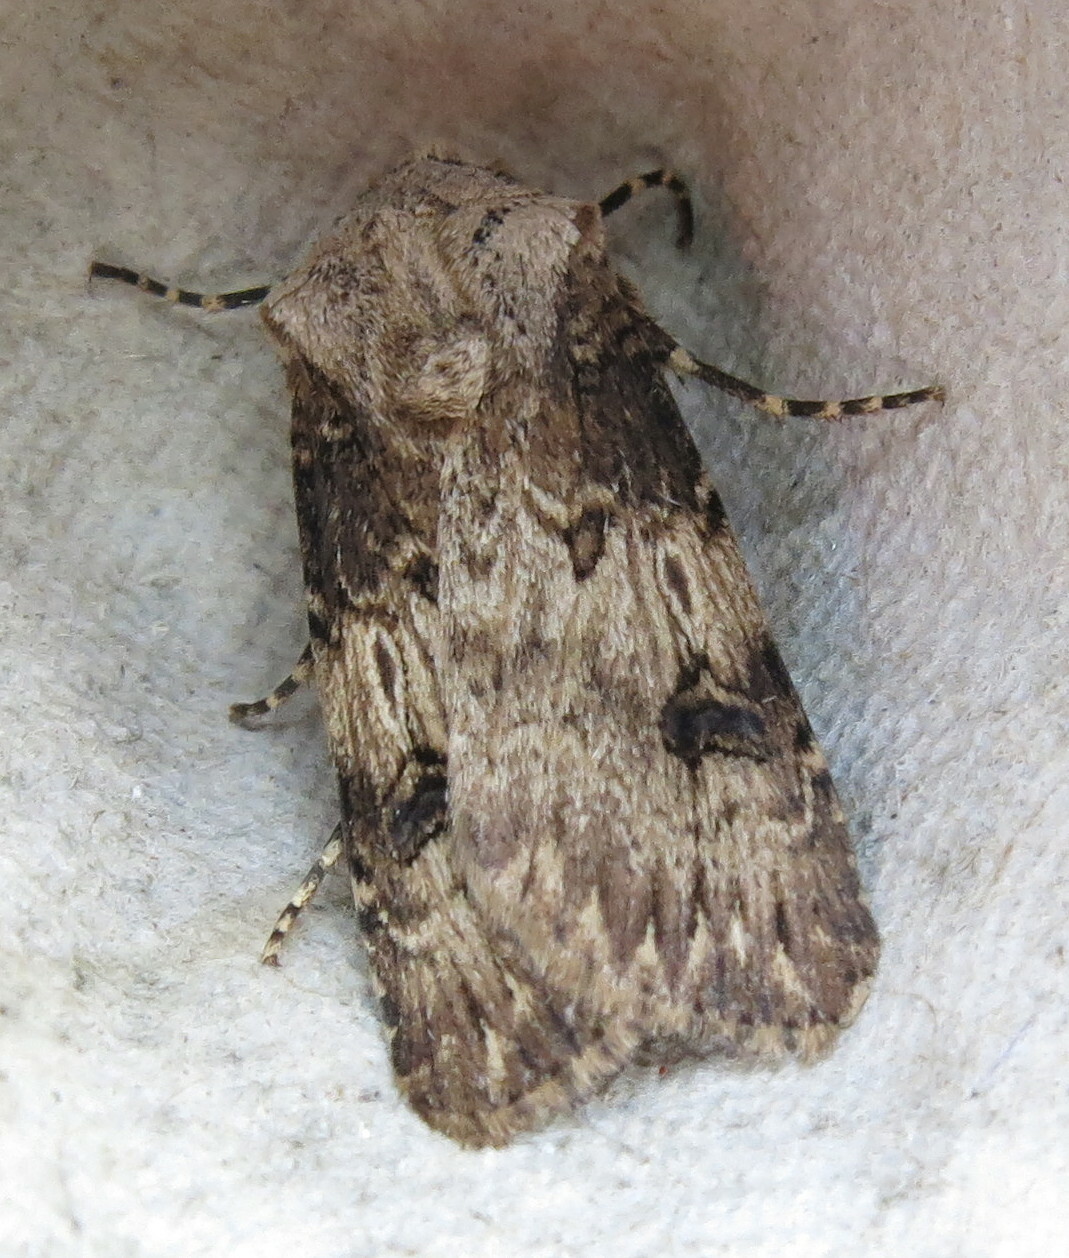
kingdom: Animalia
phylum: Arthropoda
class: Insecta
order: Lepidoptera
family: Noctuidae
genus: Agrotis
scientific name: Agrotis puta
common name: Shuttle-shaped dart
